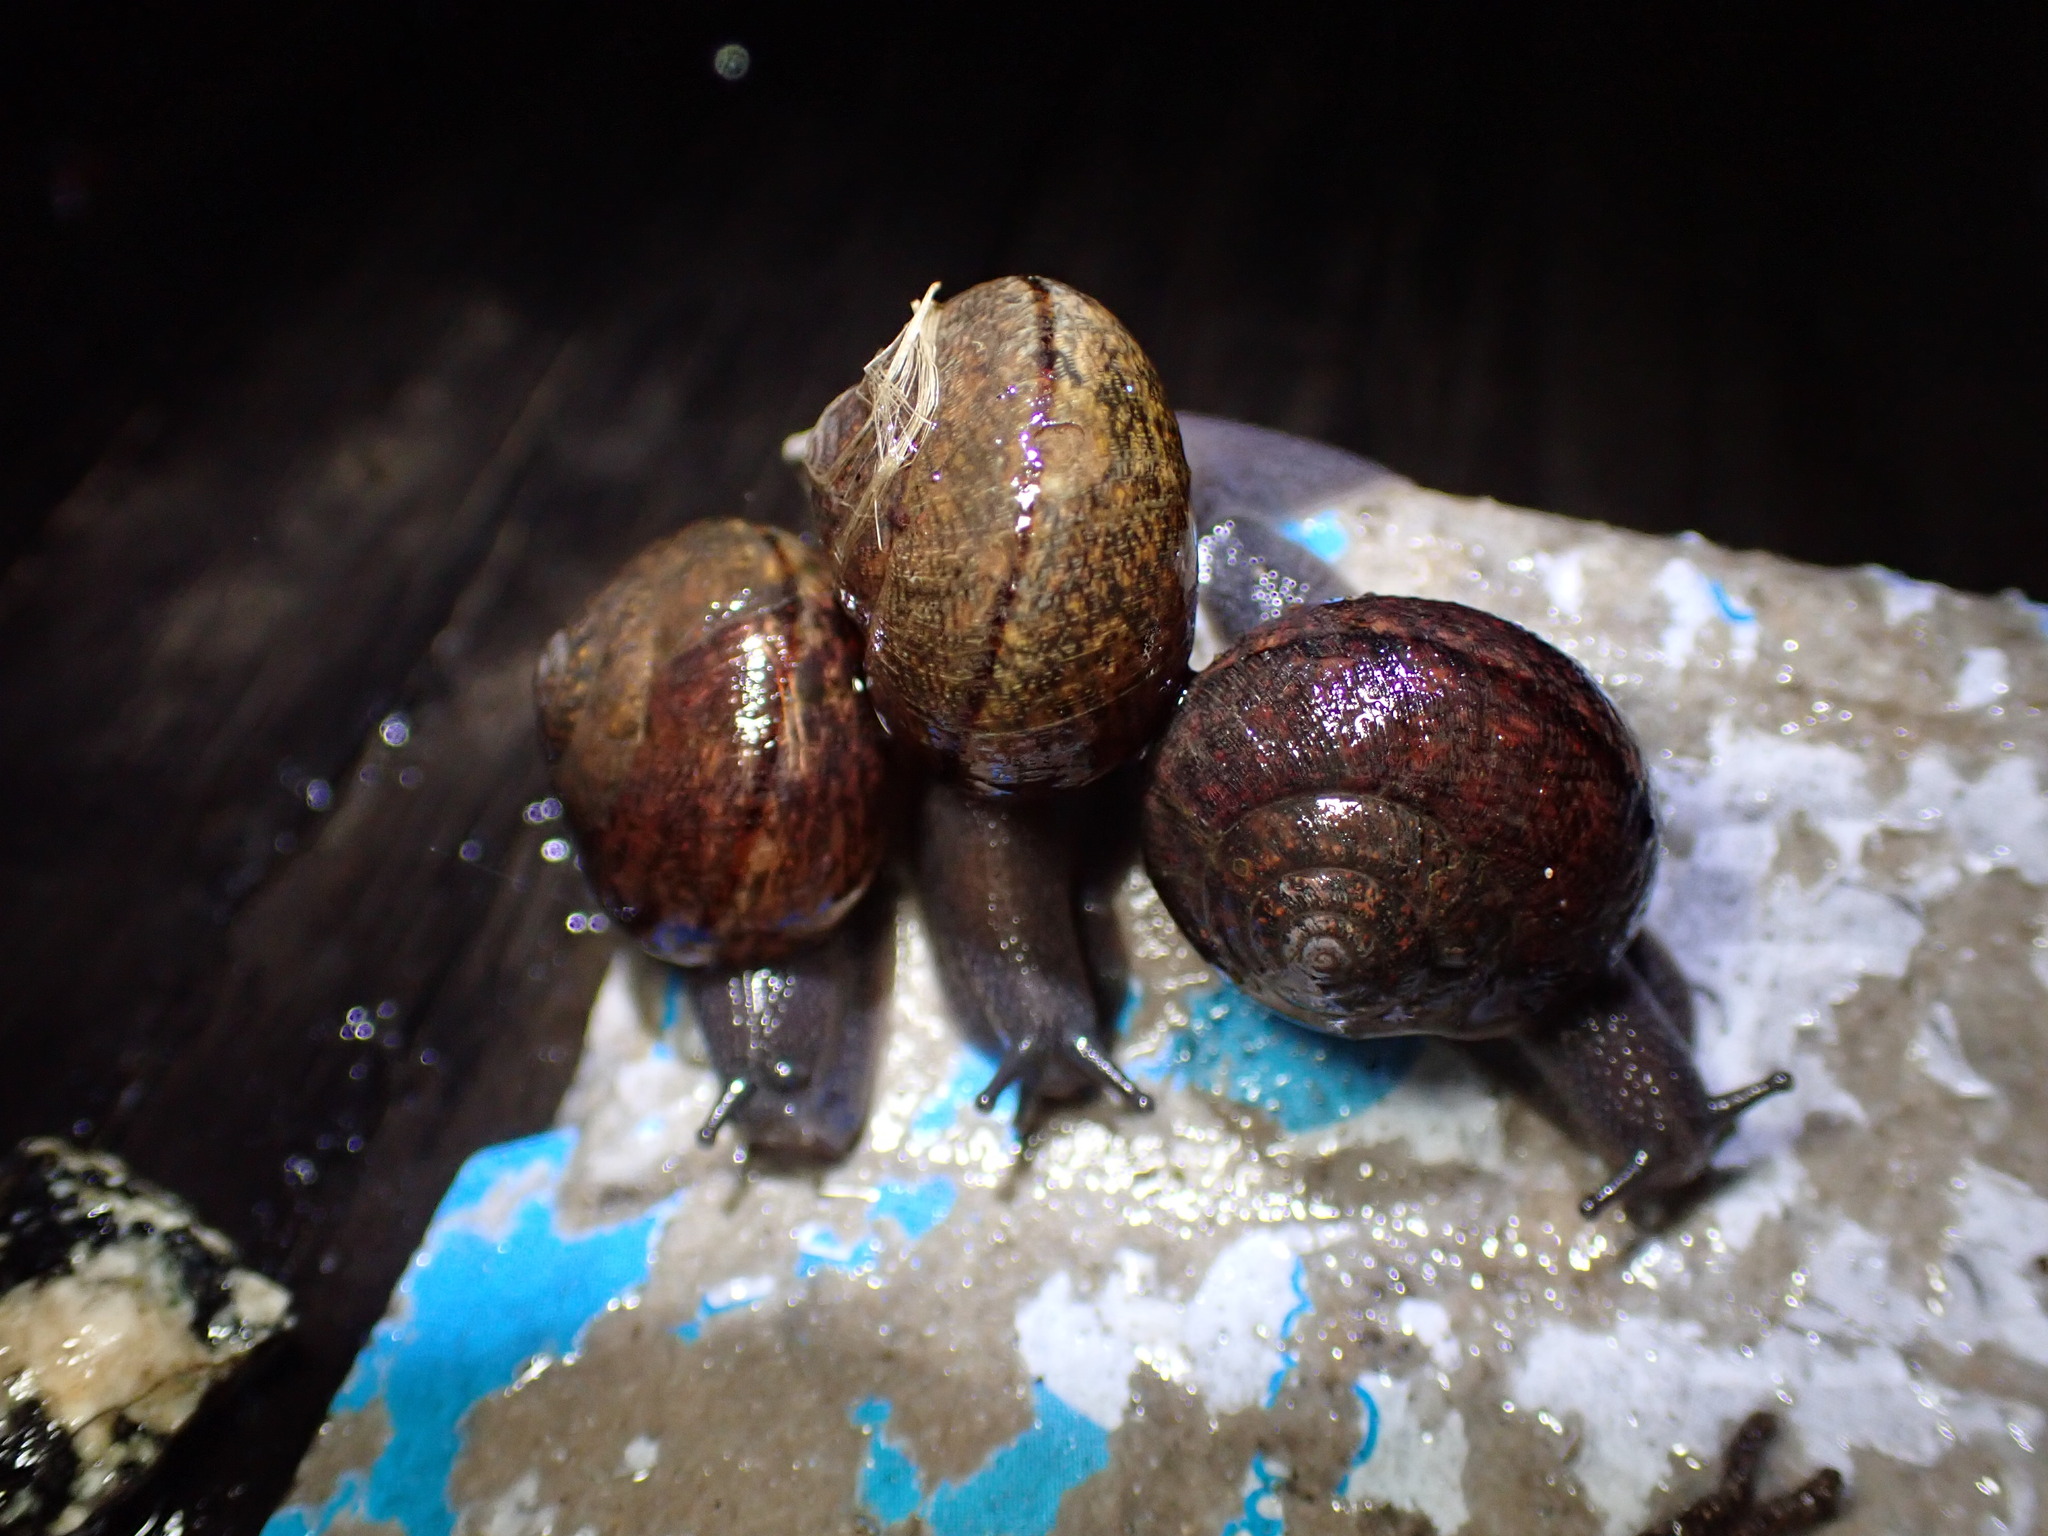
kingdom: Animalia
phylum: Mollusca
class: Gastropoda
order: Stylommatophora
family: Xanthonychidae
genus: Helminthoglypta
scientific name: Helminthoglypta nickliniana
